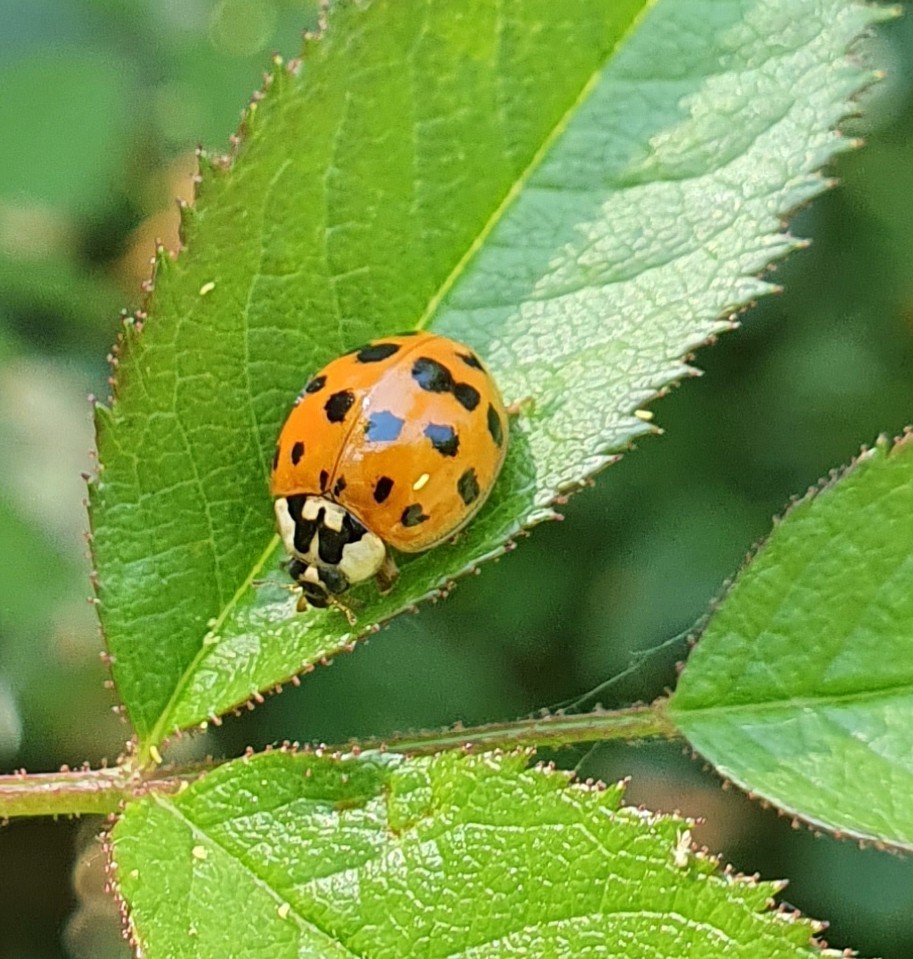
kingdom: Animalia
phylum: Arthropoda
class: Insecta
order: Coleoptera
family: Coccinellidae
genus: Harmonia
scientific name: Harmonia axyridis
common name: Harlequin ladybird
